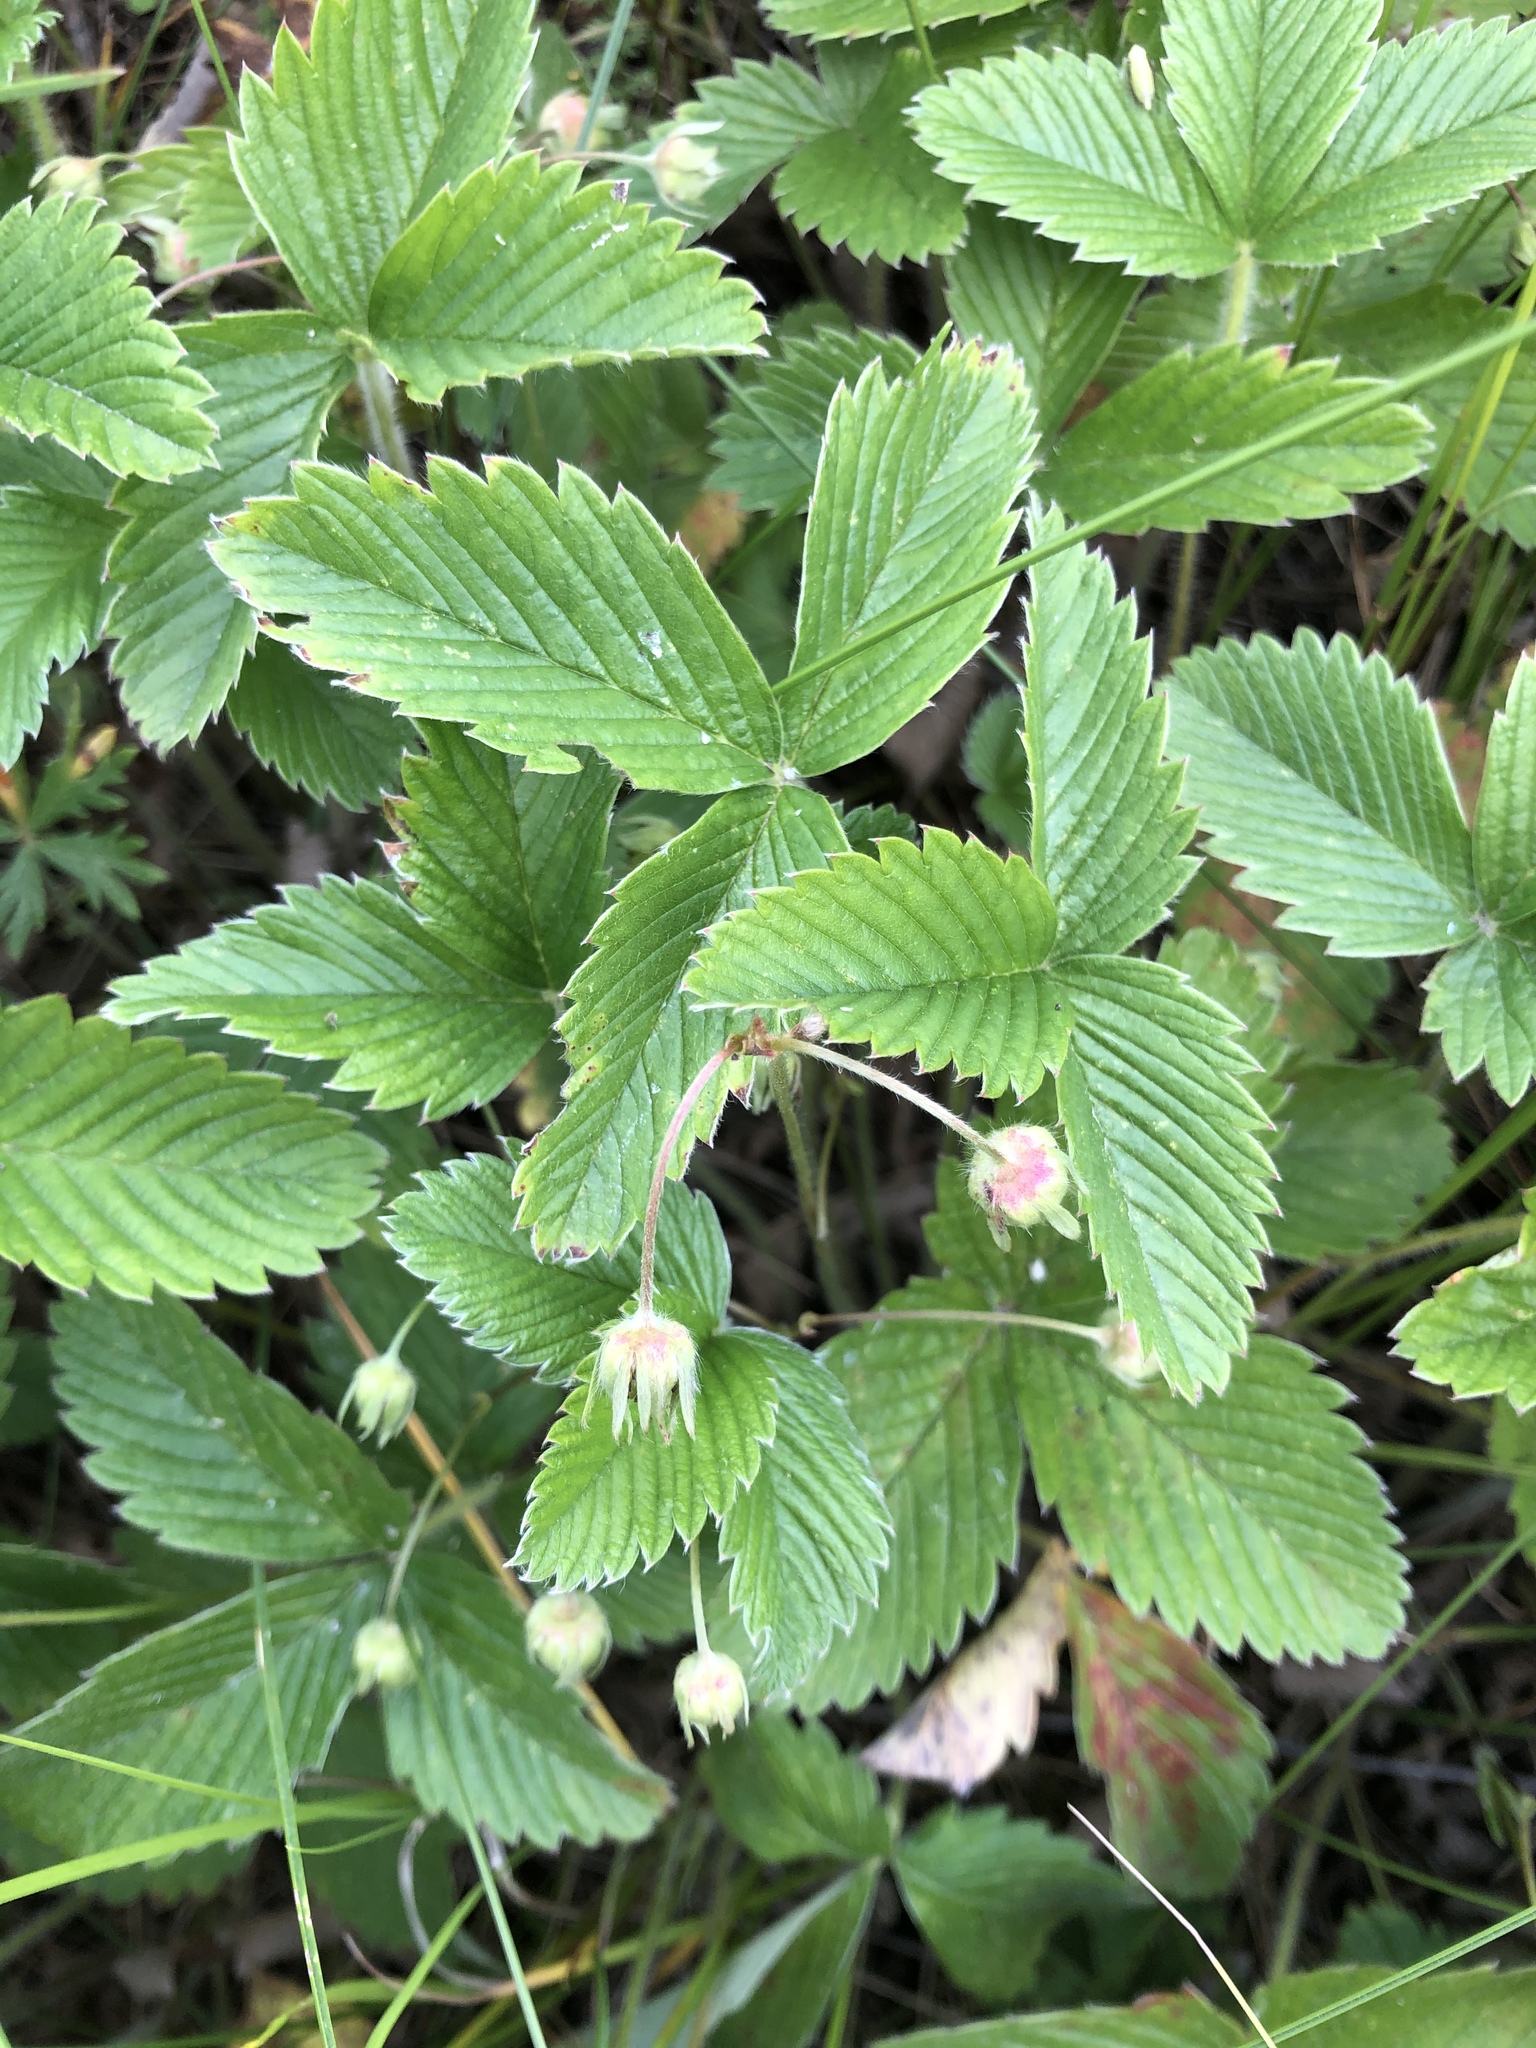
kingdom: Plantae
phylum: Tracheophyta
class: Magnoliopsida
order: Rosales
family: Rosaceae
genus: Fragaria
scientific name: Fragaria viridis
